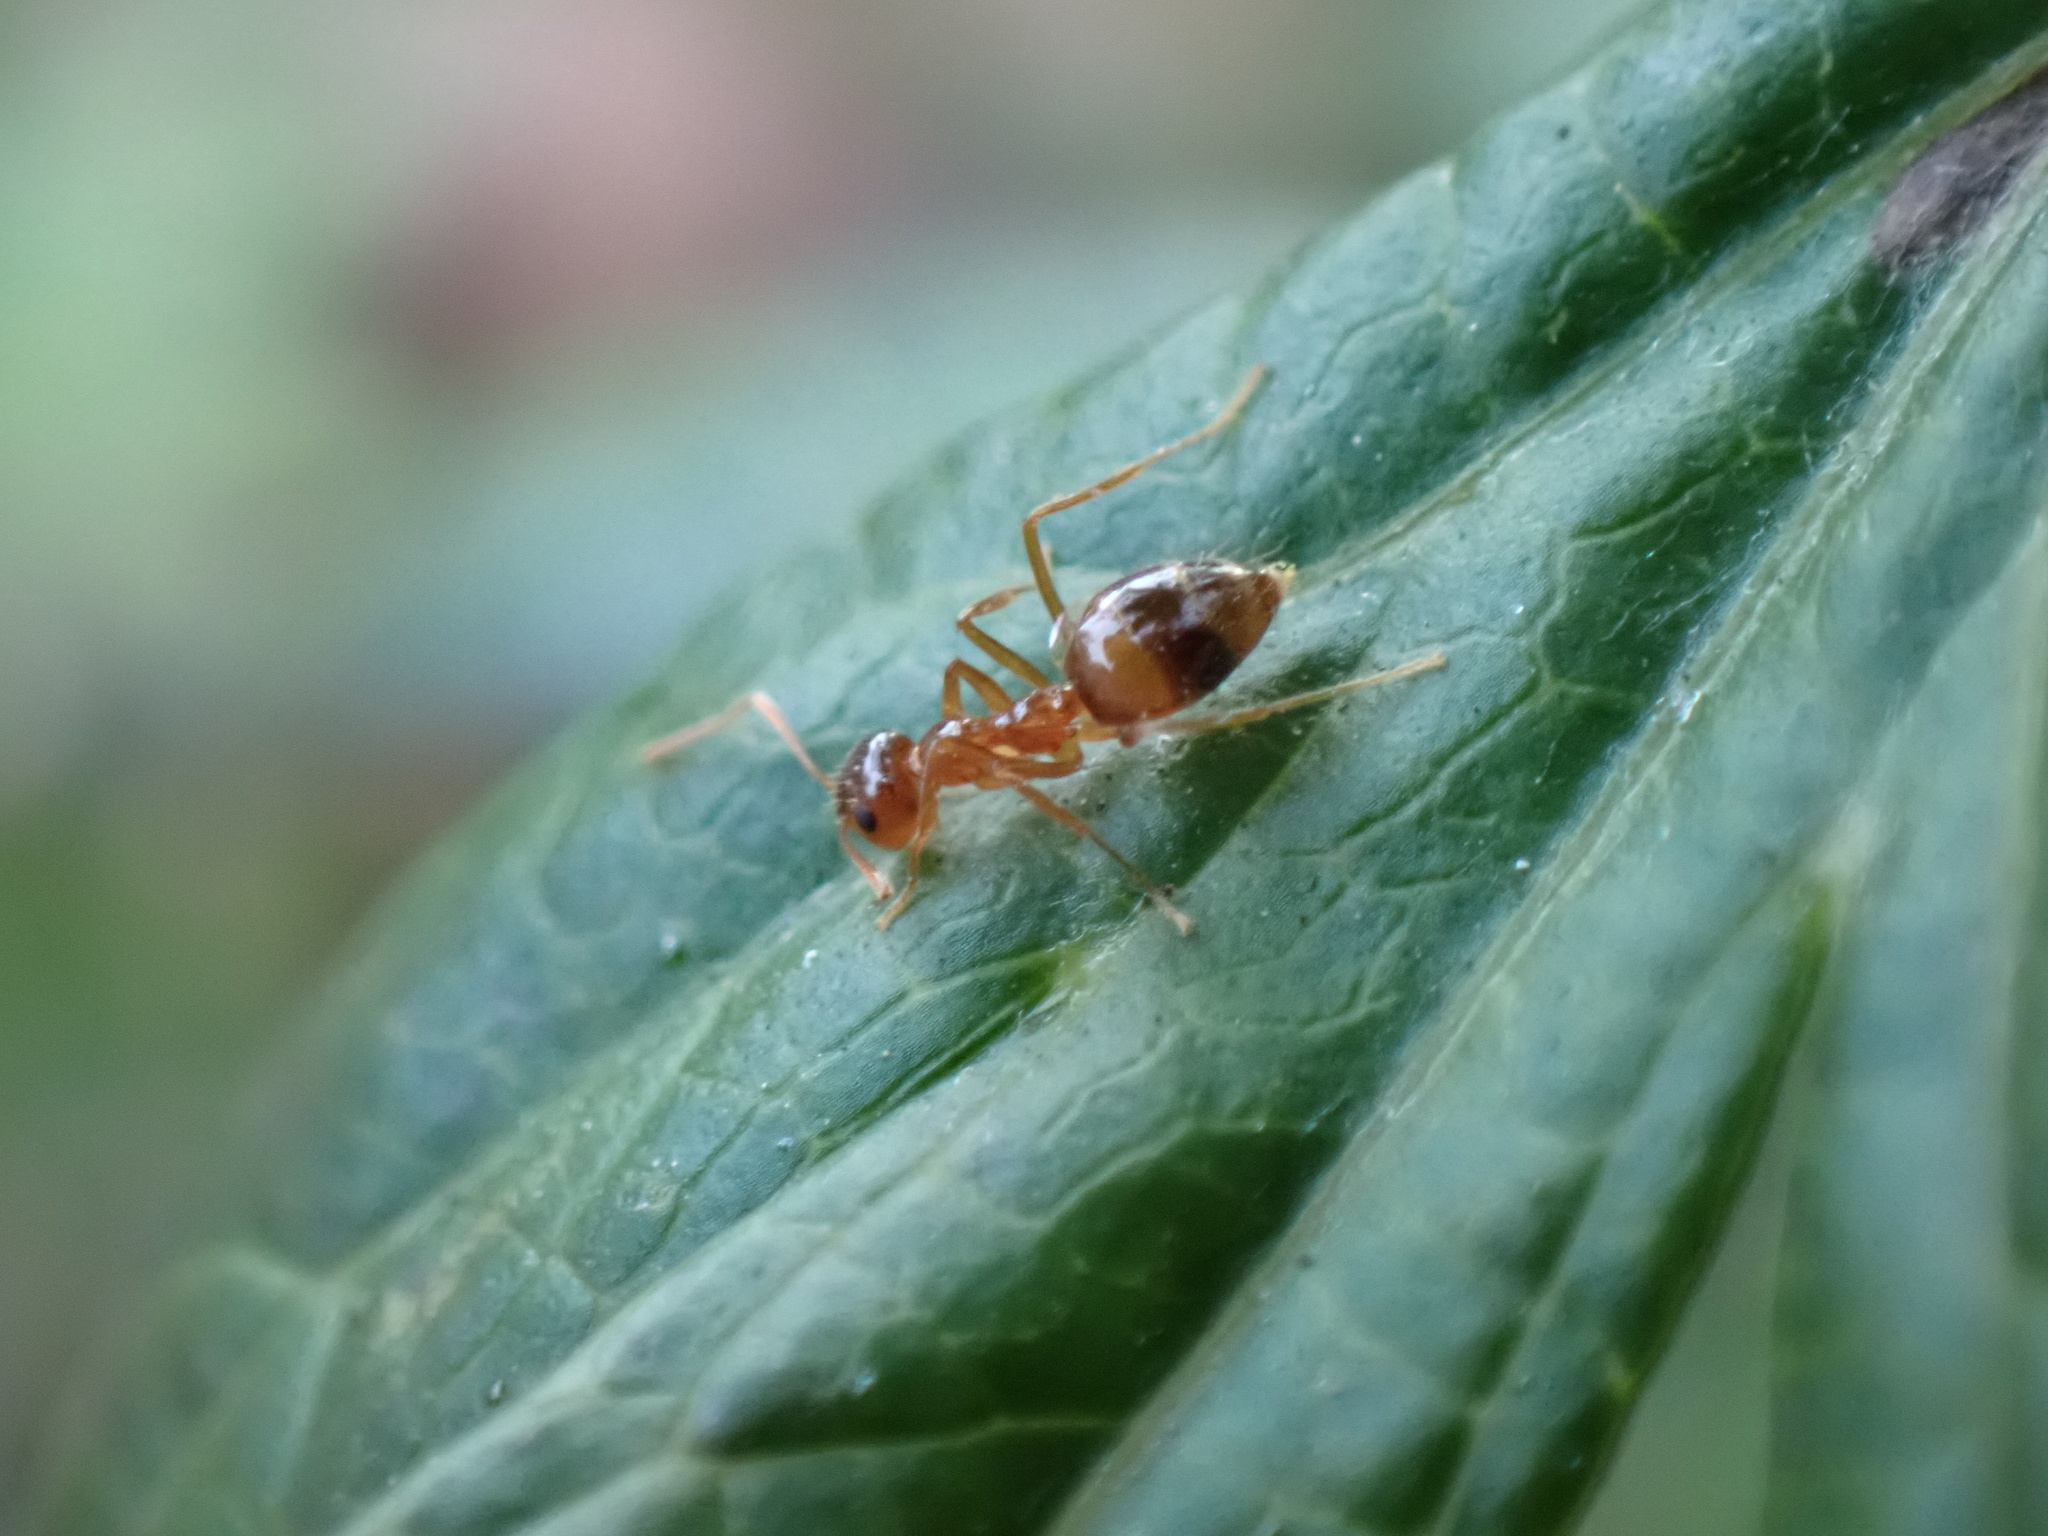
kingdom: Animalia
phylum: Arthropoda
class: Insecta
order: Hymenoptera
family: Formicidae
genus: Prenolepis
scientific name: Prenolepis imparis
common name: Small honey ant
